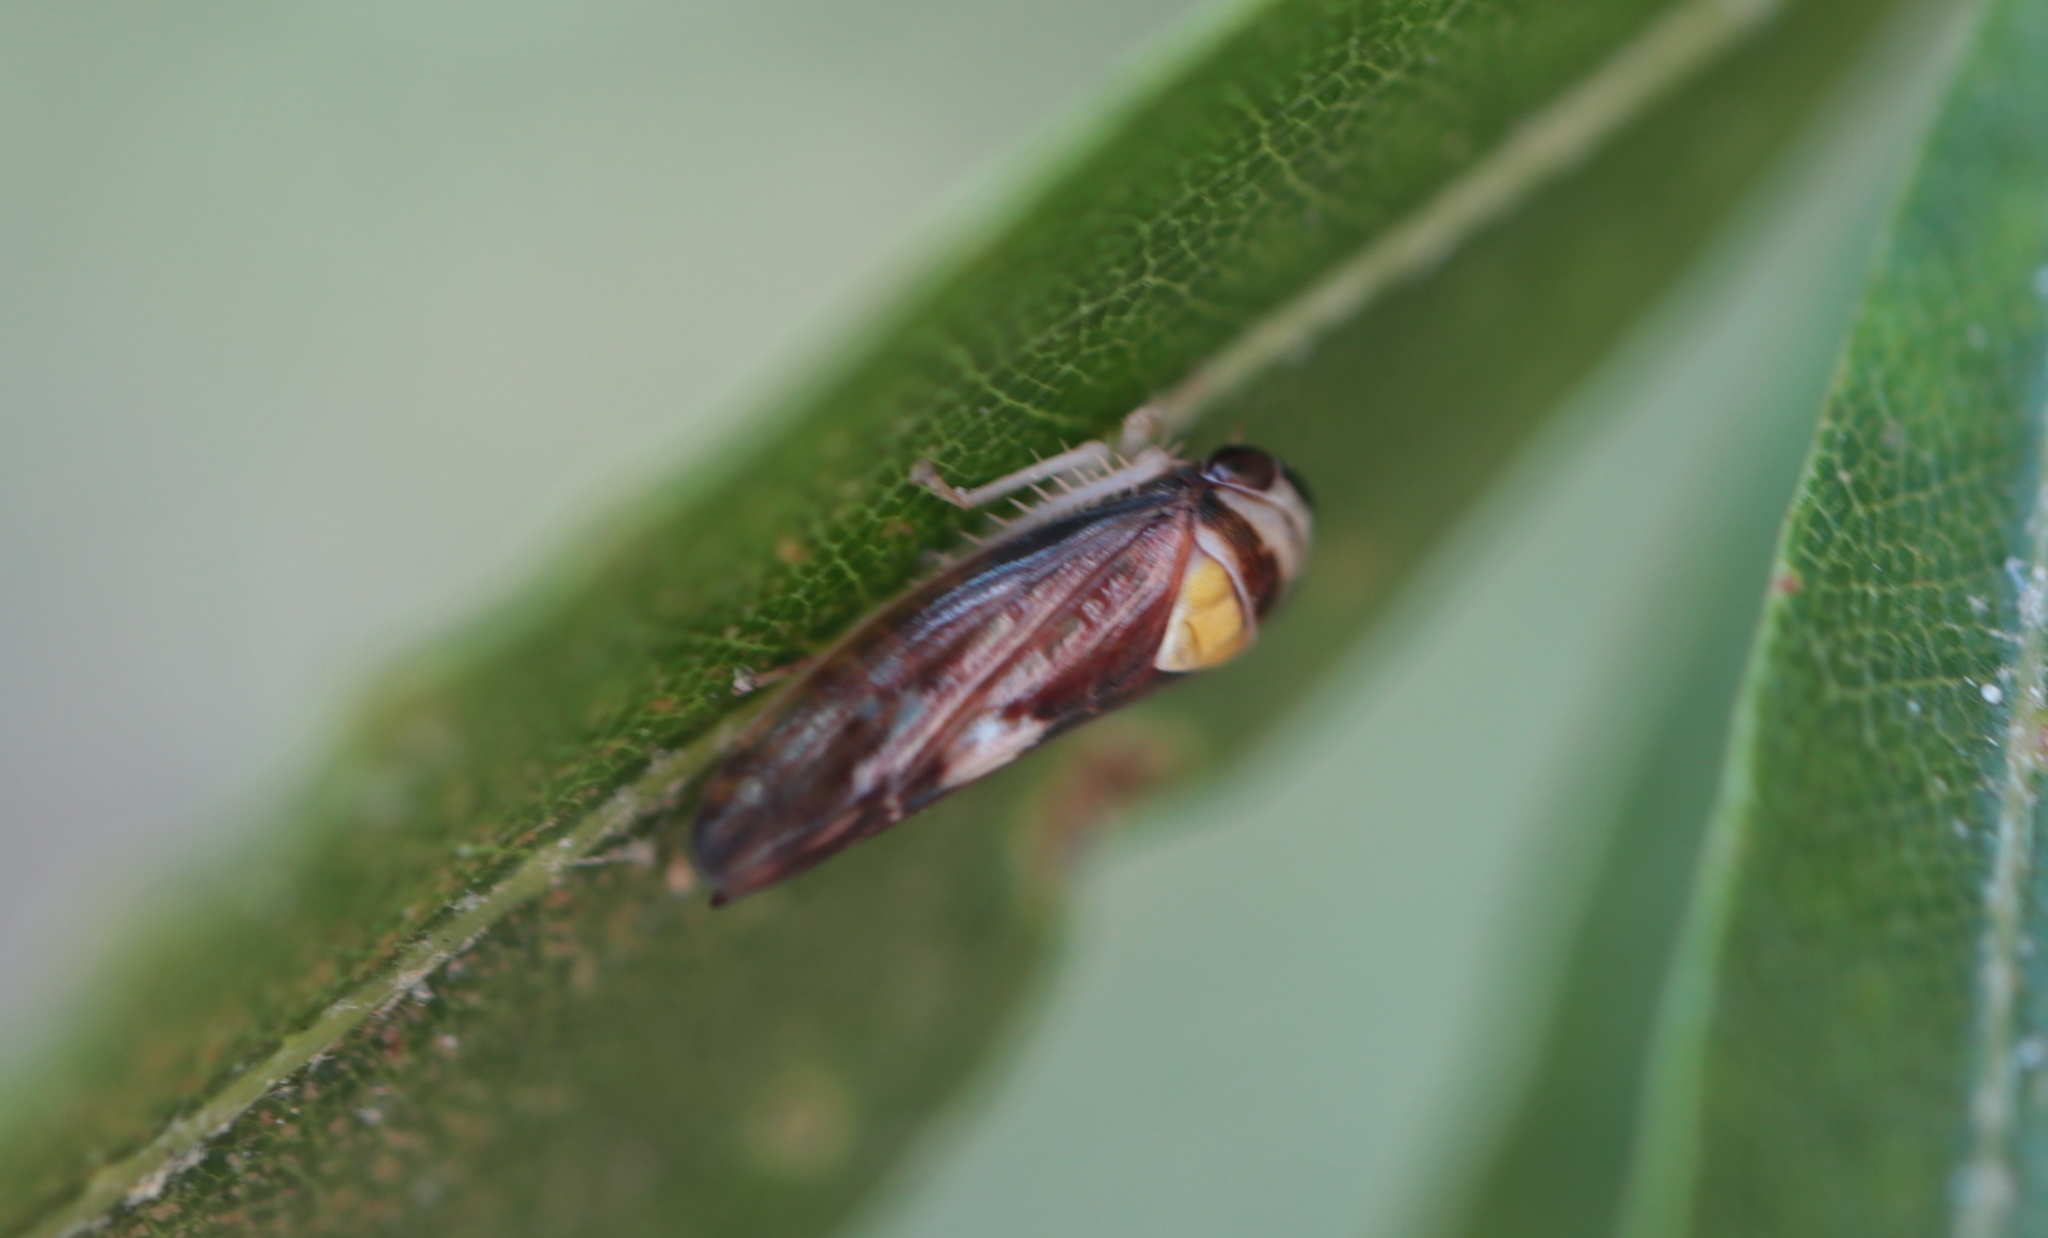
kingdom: Animalia
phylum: Arthropoda
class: Insecta
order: Hemiptera
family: Cicadellidae
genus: Eutettix
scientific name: Eutettix pictus
